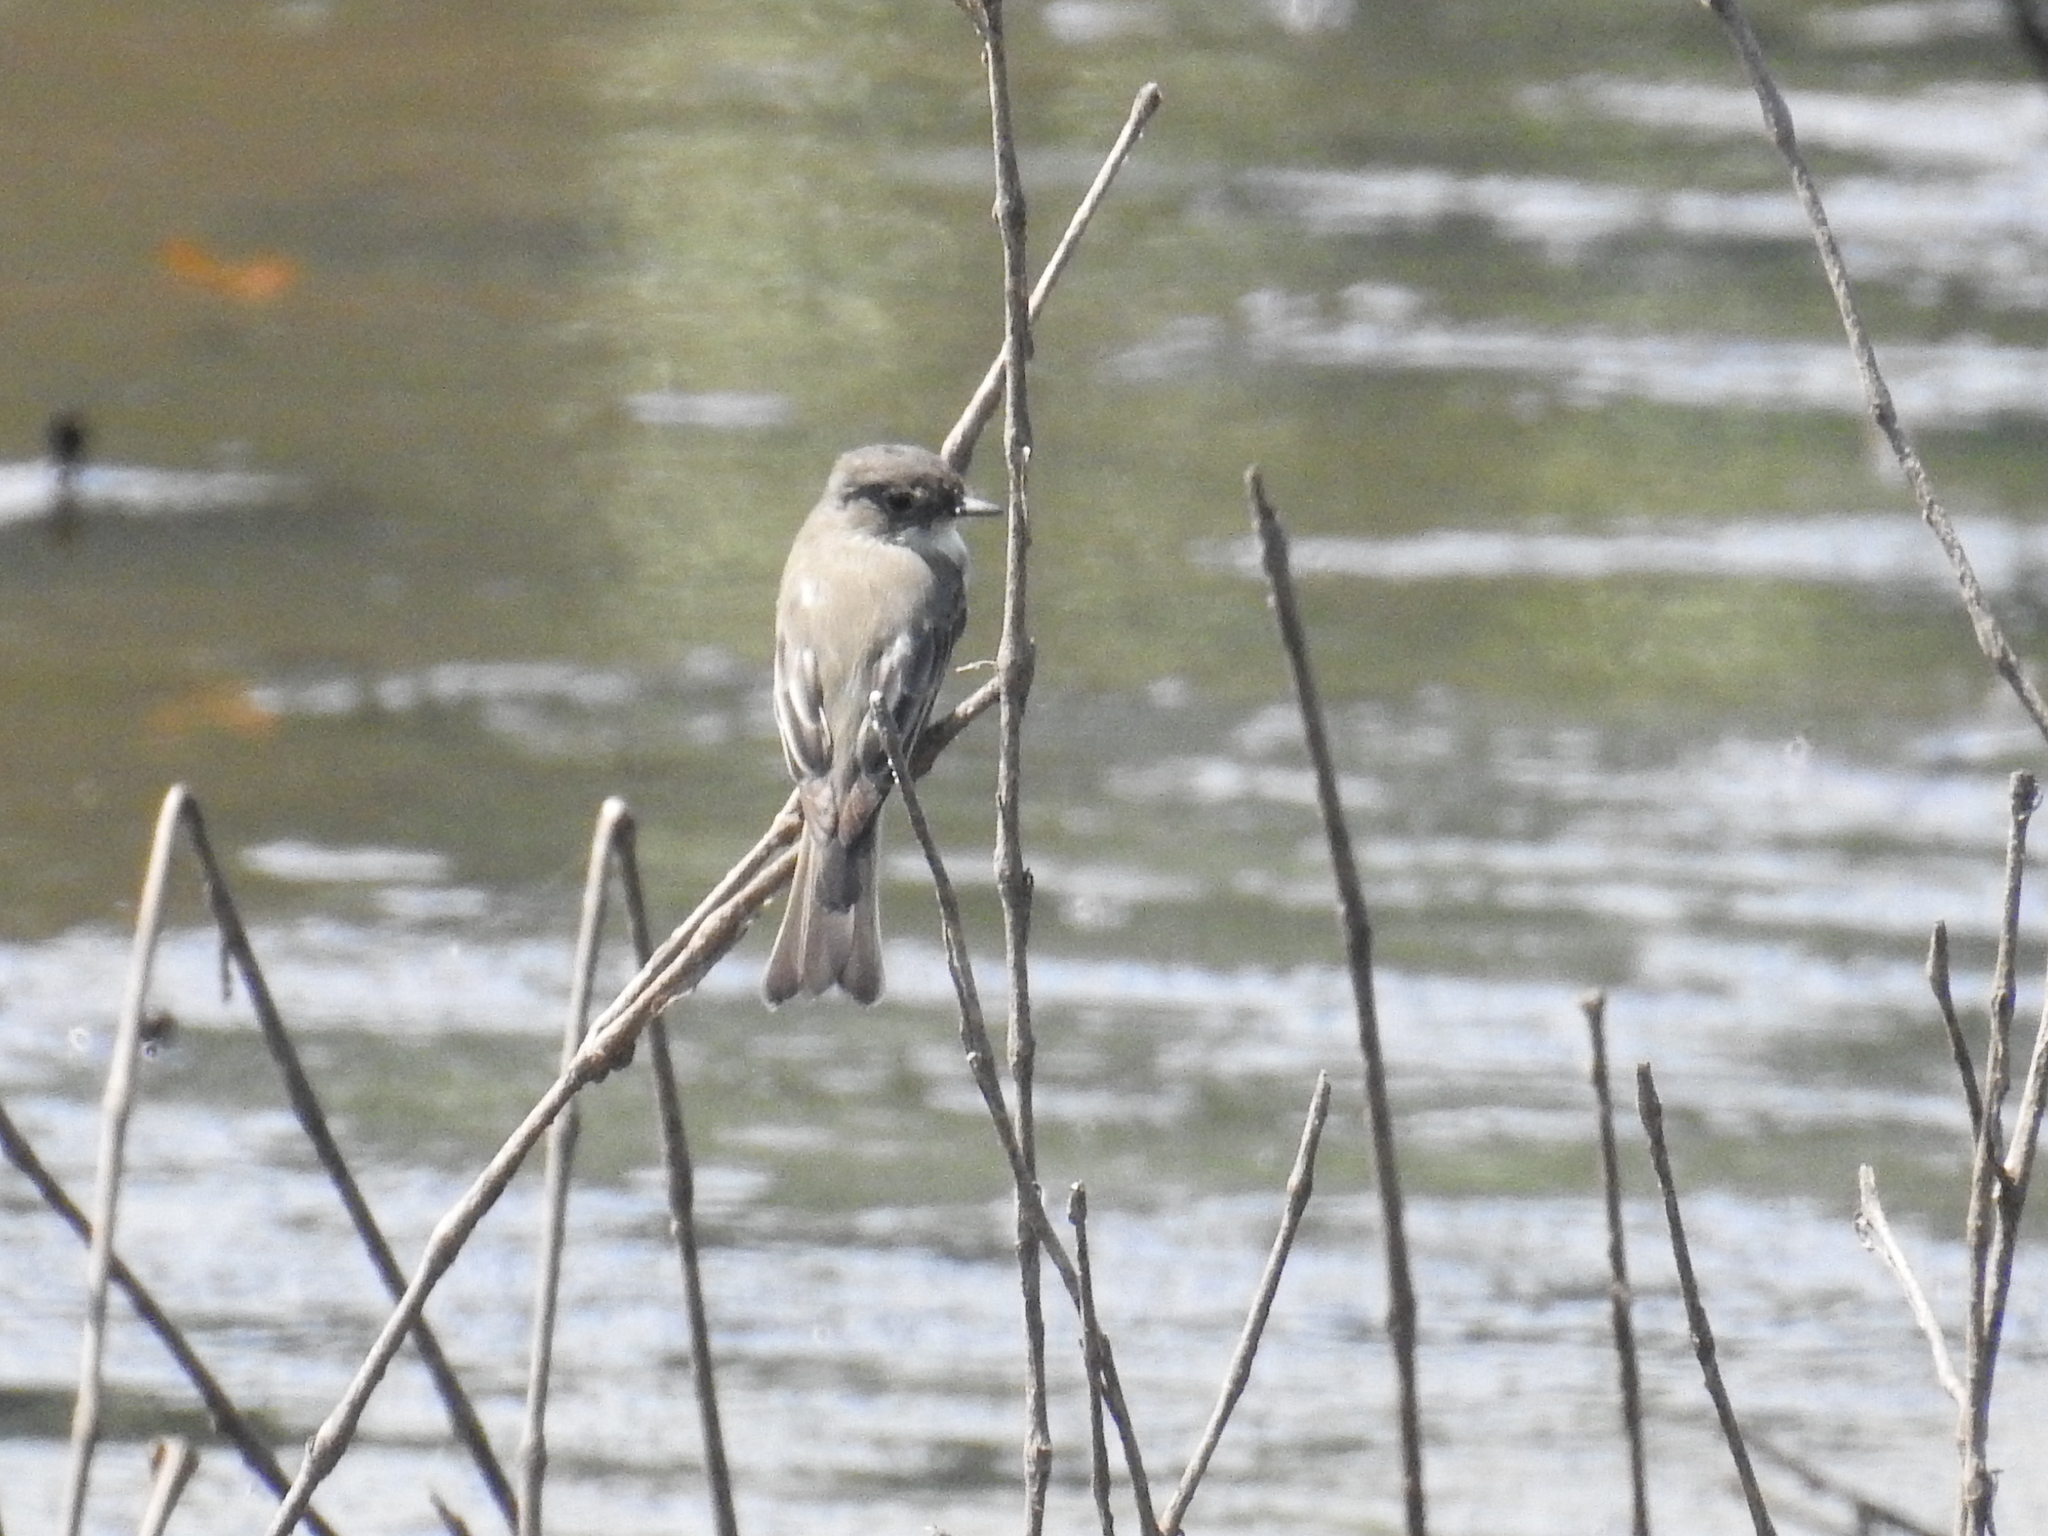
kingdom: Animalia
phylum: Chordata
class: Aves
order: Passeriformes
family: Tyrannidae
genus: Sayornis
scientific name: Sayornis phoebe
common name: Eastern phoebe
